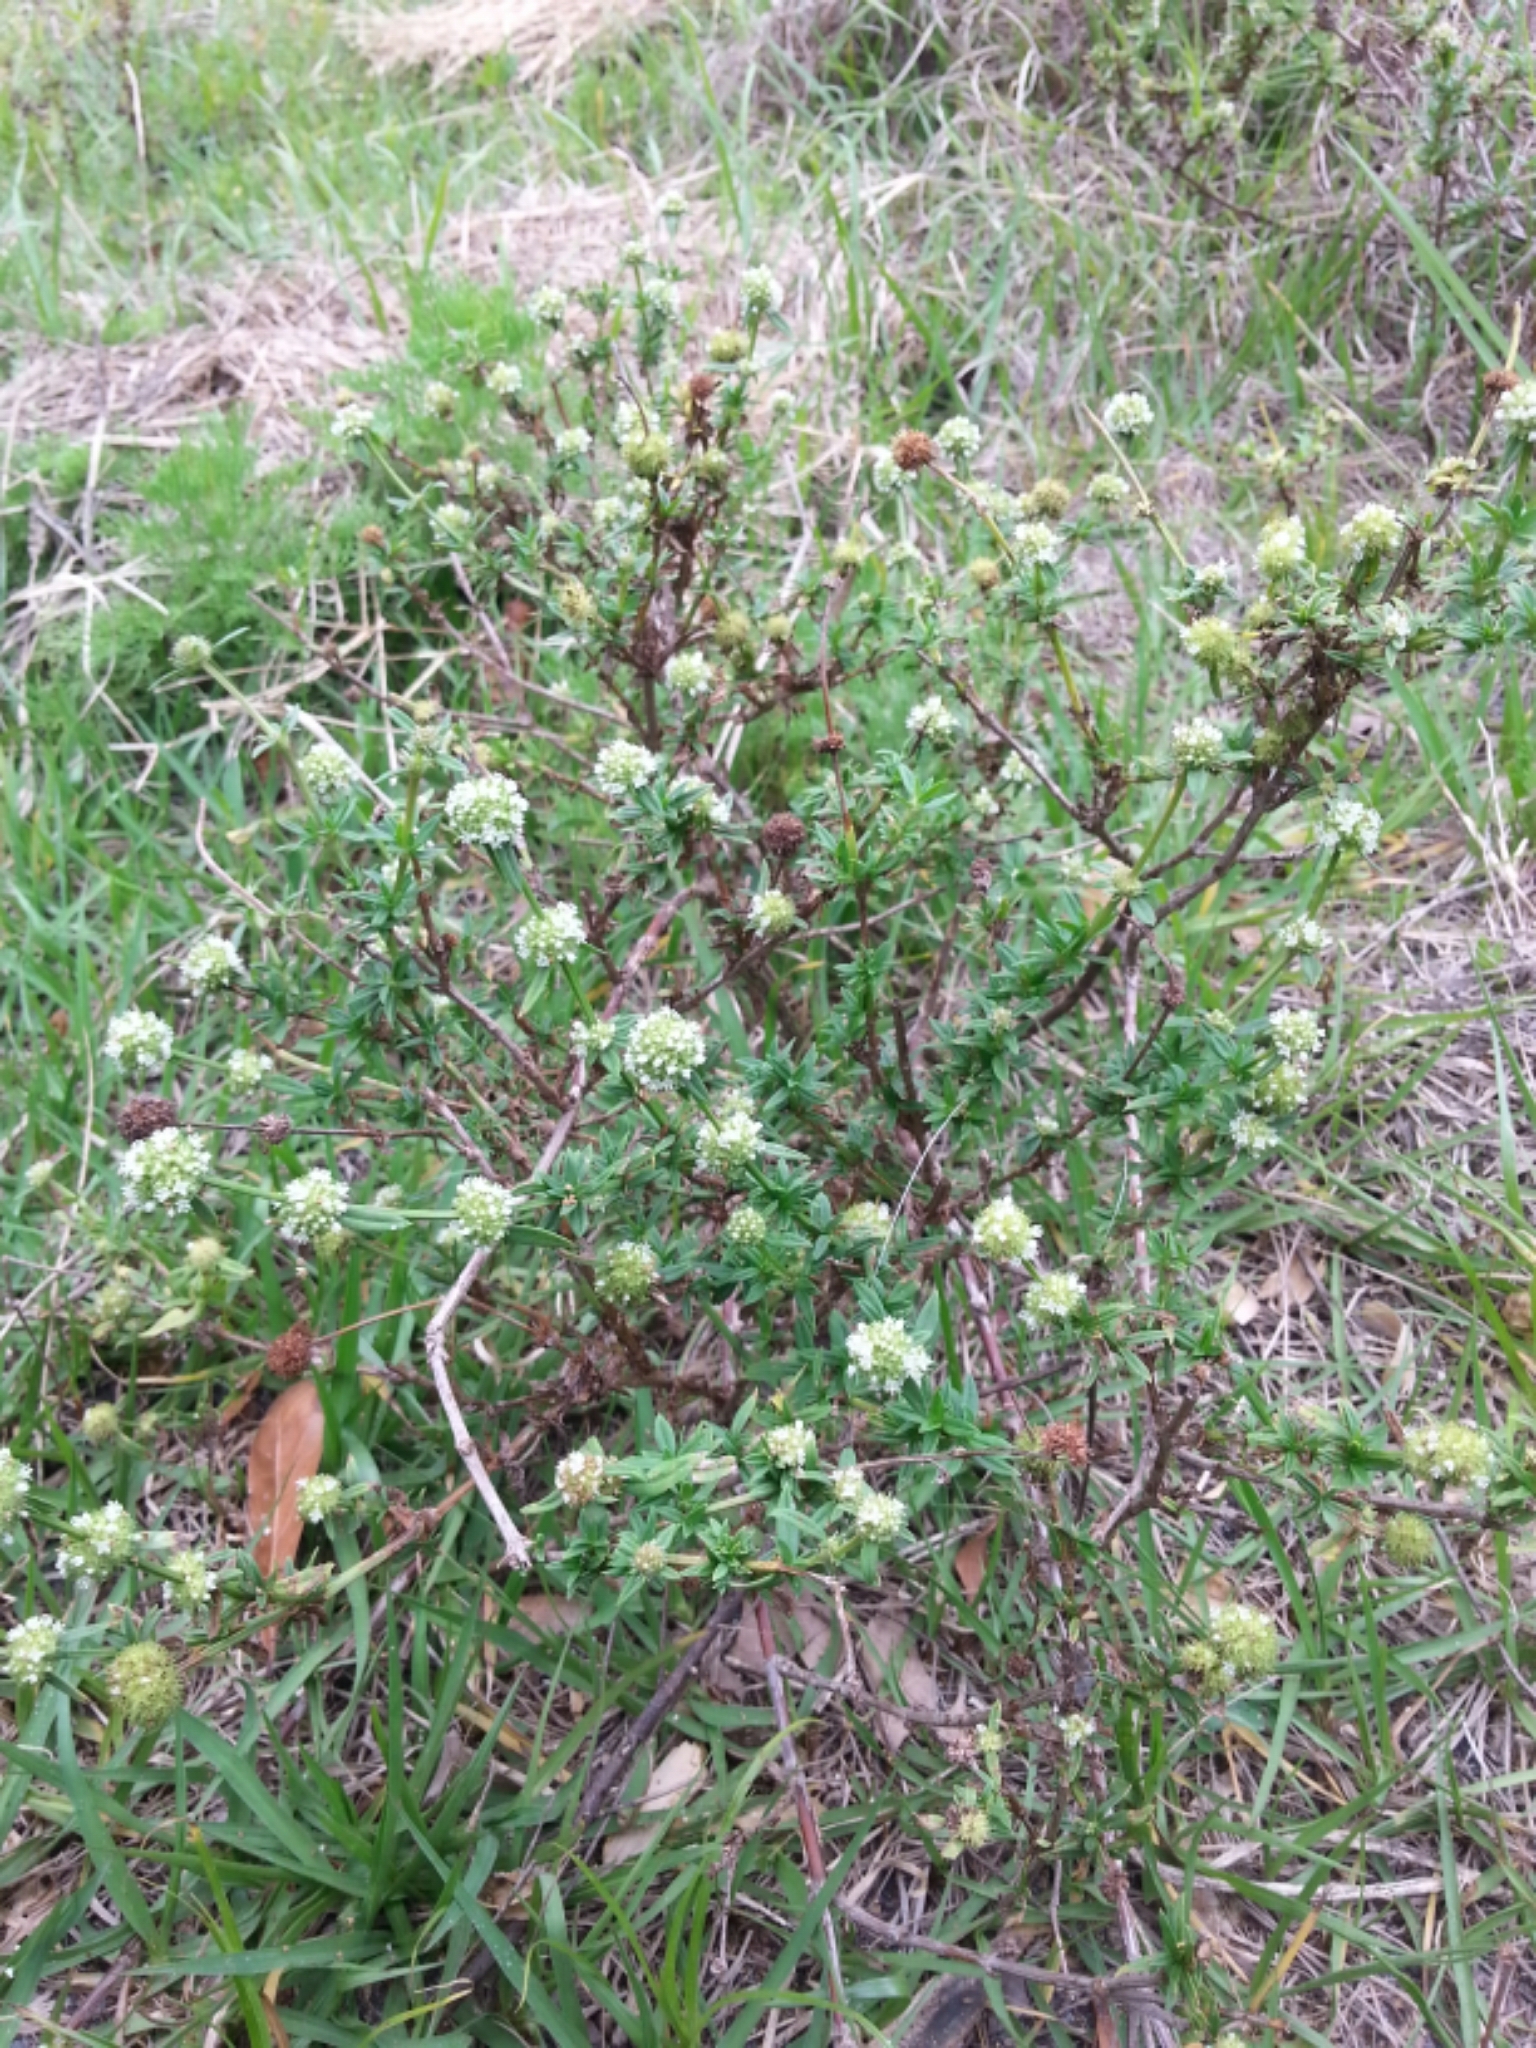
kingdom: Plantae
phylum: Tracheophyta
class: Magnoliopsida
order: Gentianales
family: Rubiaceae
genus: Spermacoce
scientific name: Spermacoce verticillata
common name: Shrubby false buttonweed
